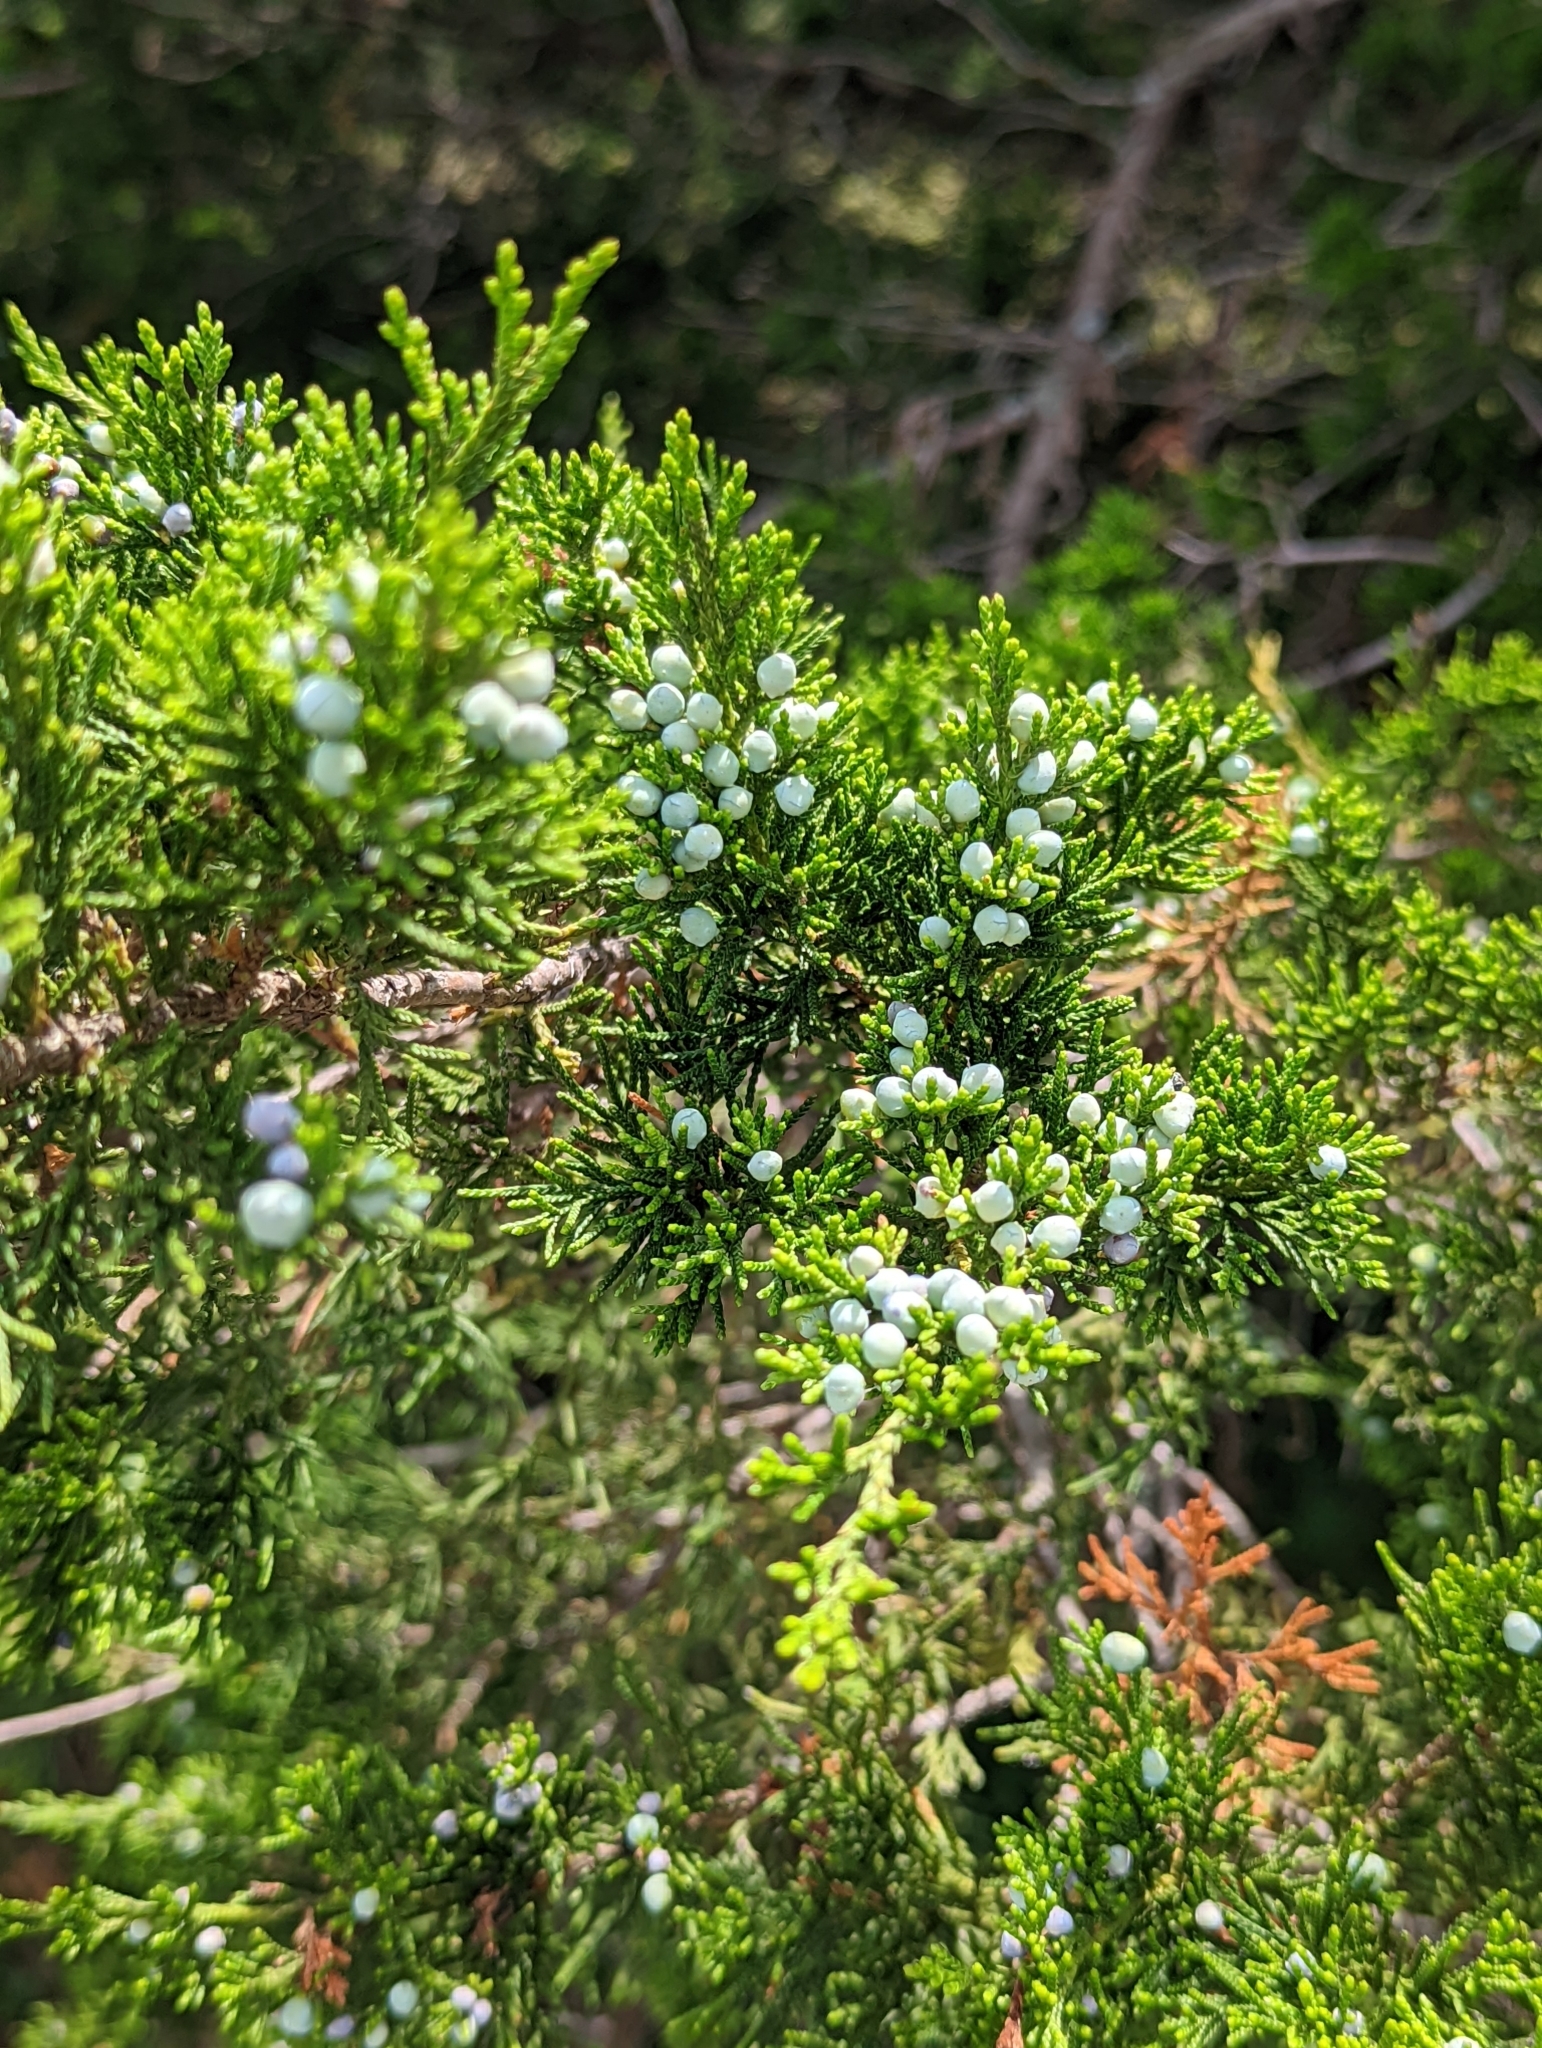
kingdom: Plantae
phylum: Tracheophyta
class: Pinopsida
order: Pinales
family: Cupressaceae
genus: Juniperus
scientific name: Juniperus virginiana
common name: Red juniper
